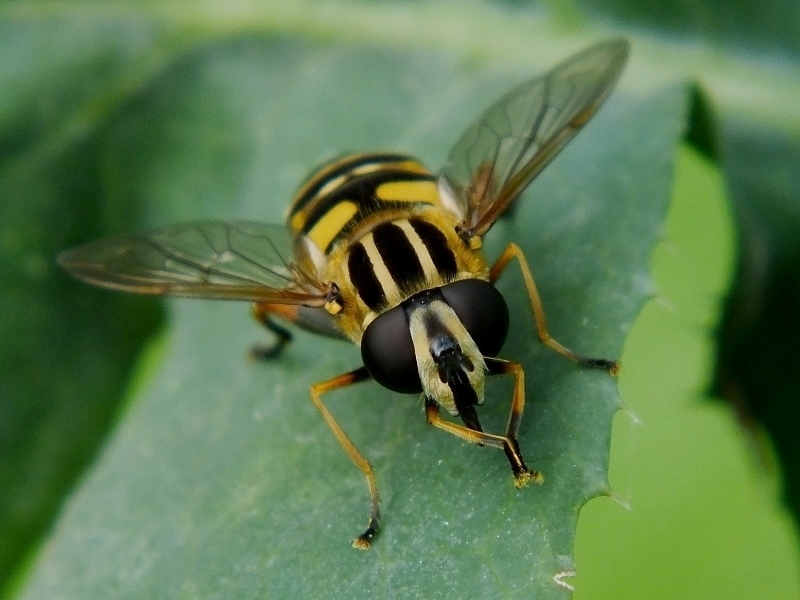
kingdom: Animalia
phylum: Arthropoda
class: Insecta
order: Diptera
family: Syrphidae
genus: Helophilus
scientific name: Helophilus pendulus
